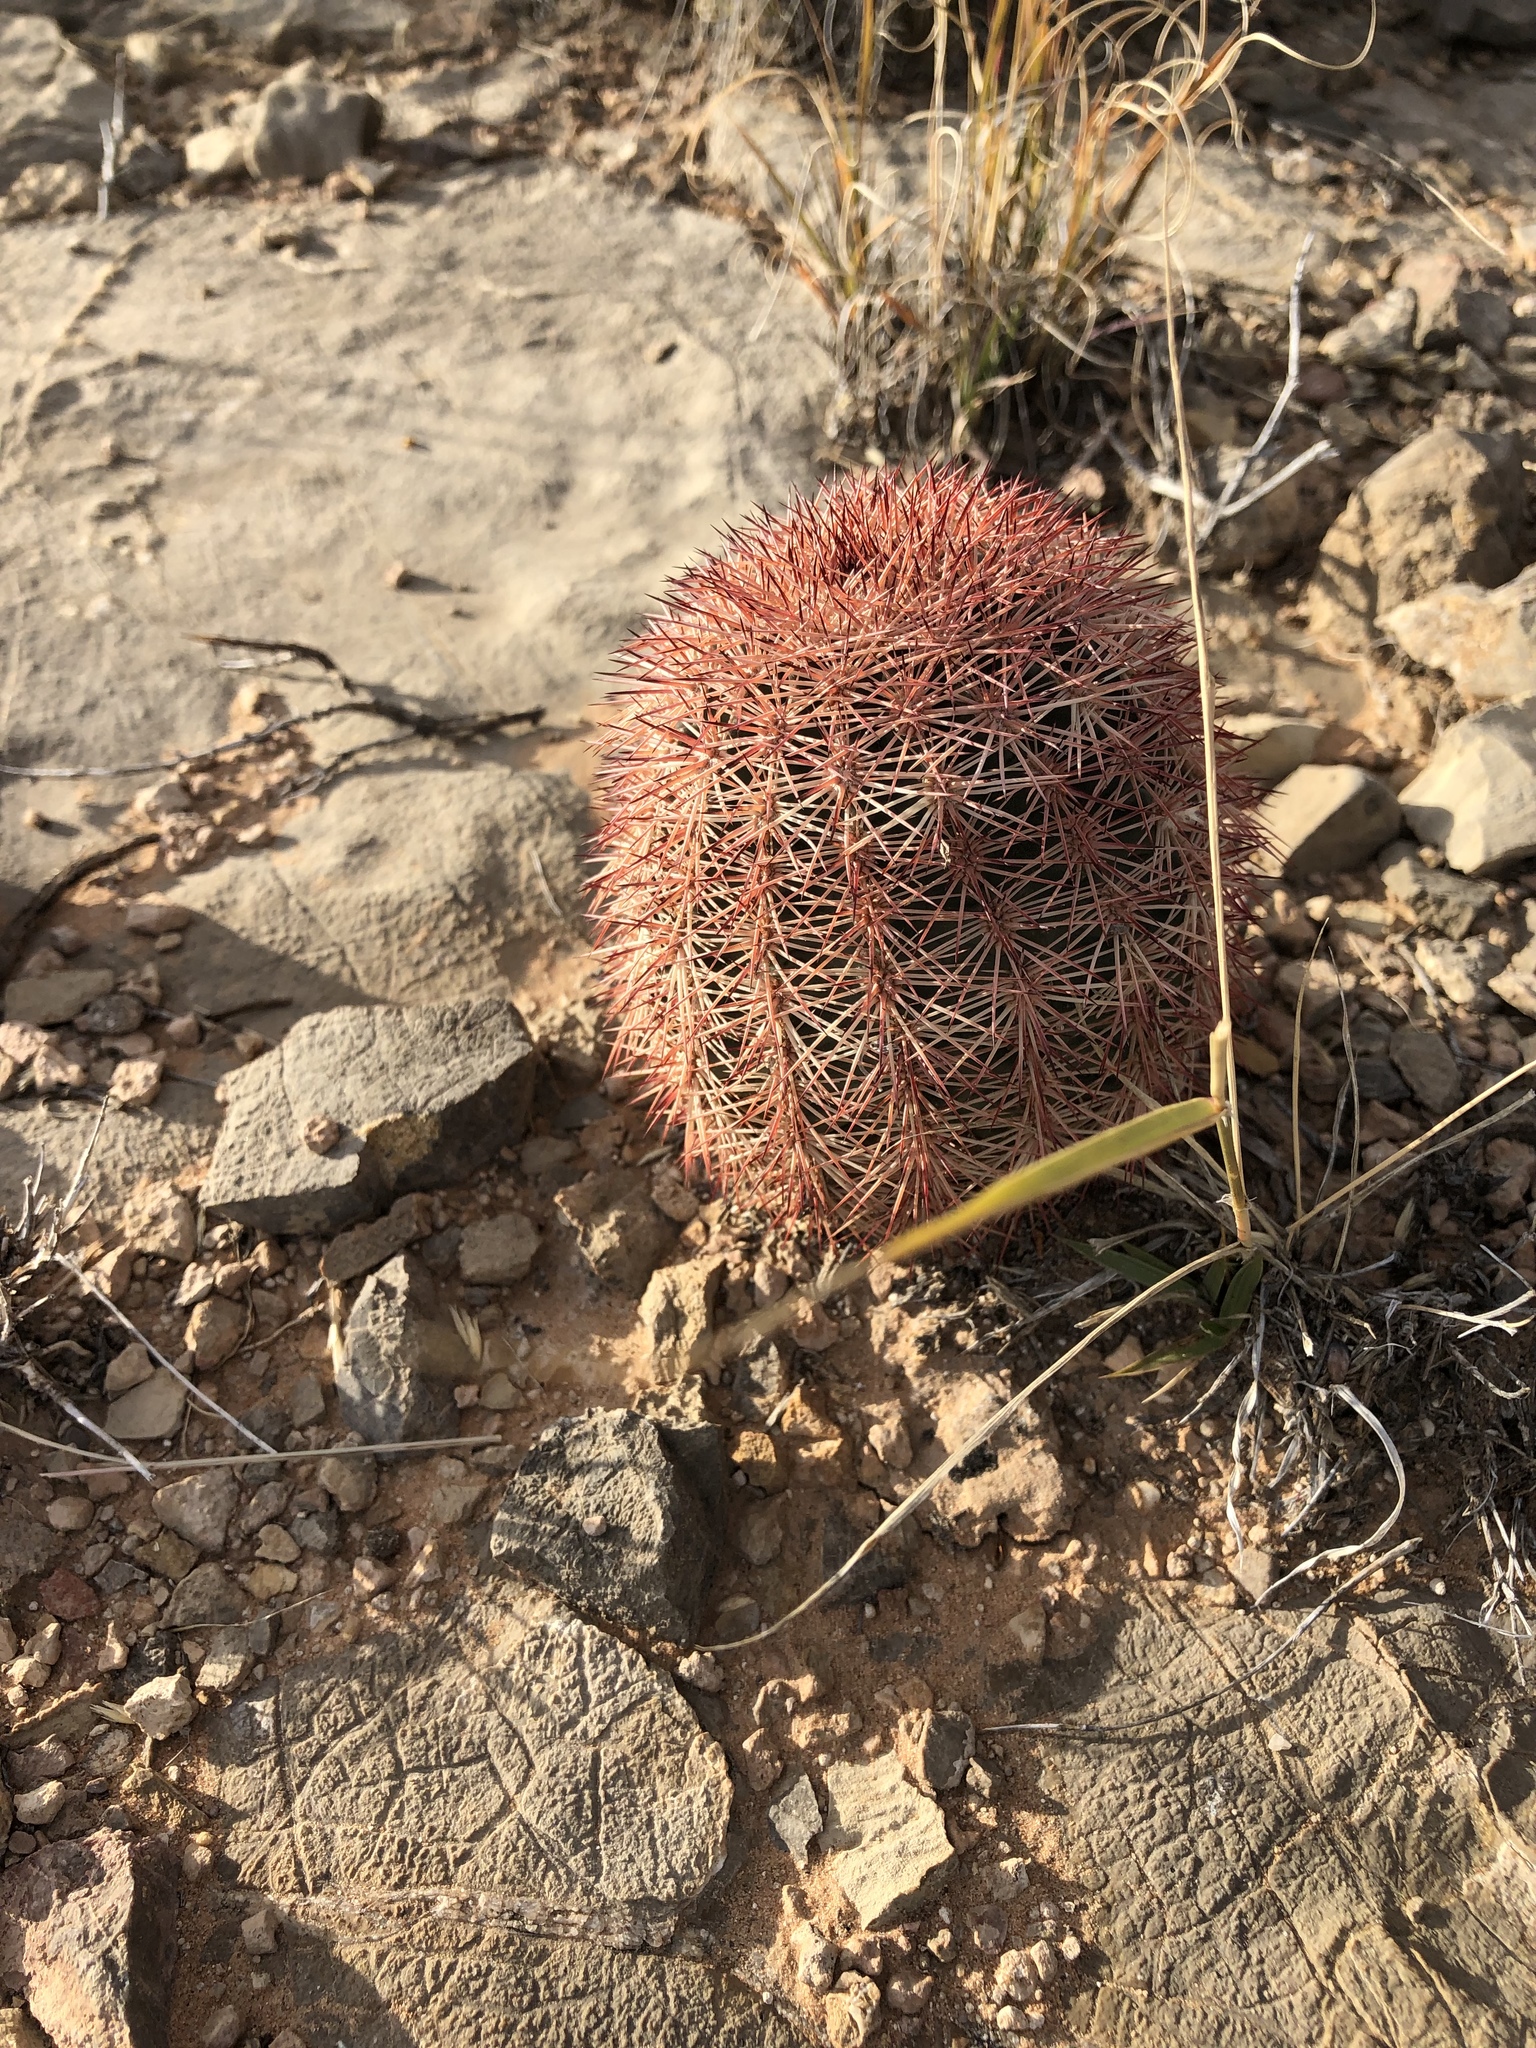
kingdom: Plantae
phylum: Tracheophyta
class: Magnoliopsida
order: Caryophyllales
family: Cactaceae
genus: Echinocereus
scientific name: Echinocereus dasyacanthus
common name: Spiny hedgehog cactus
